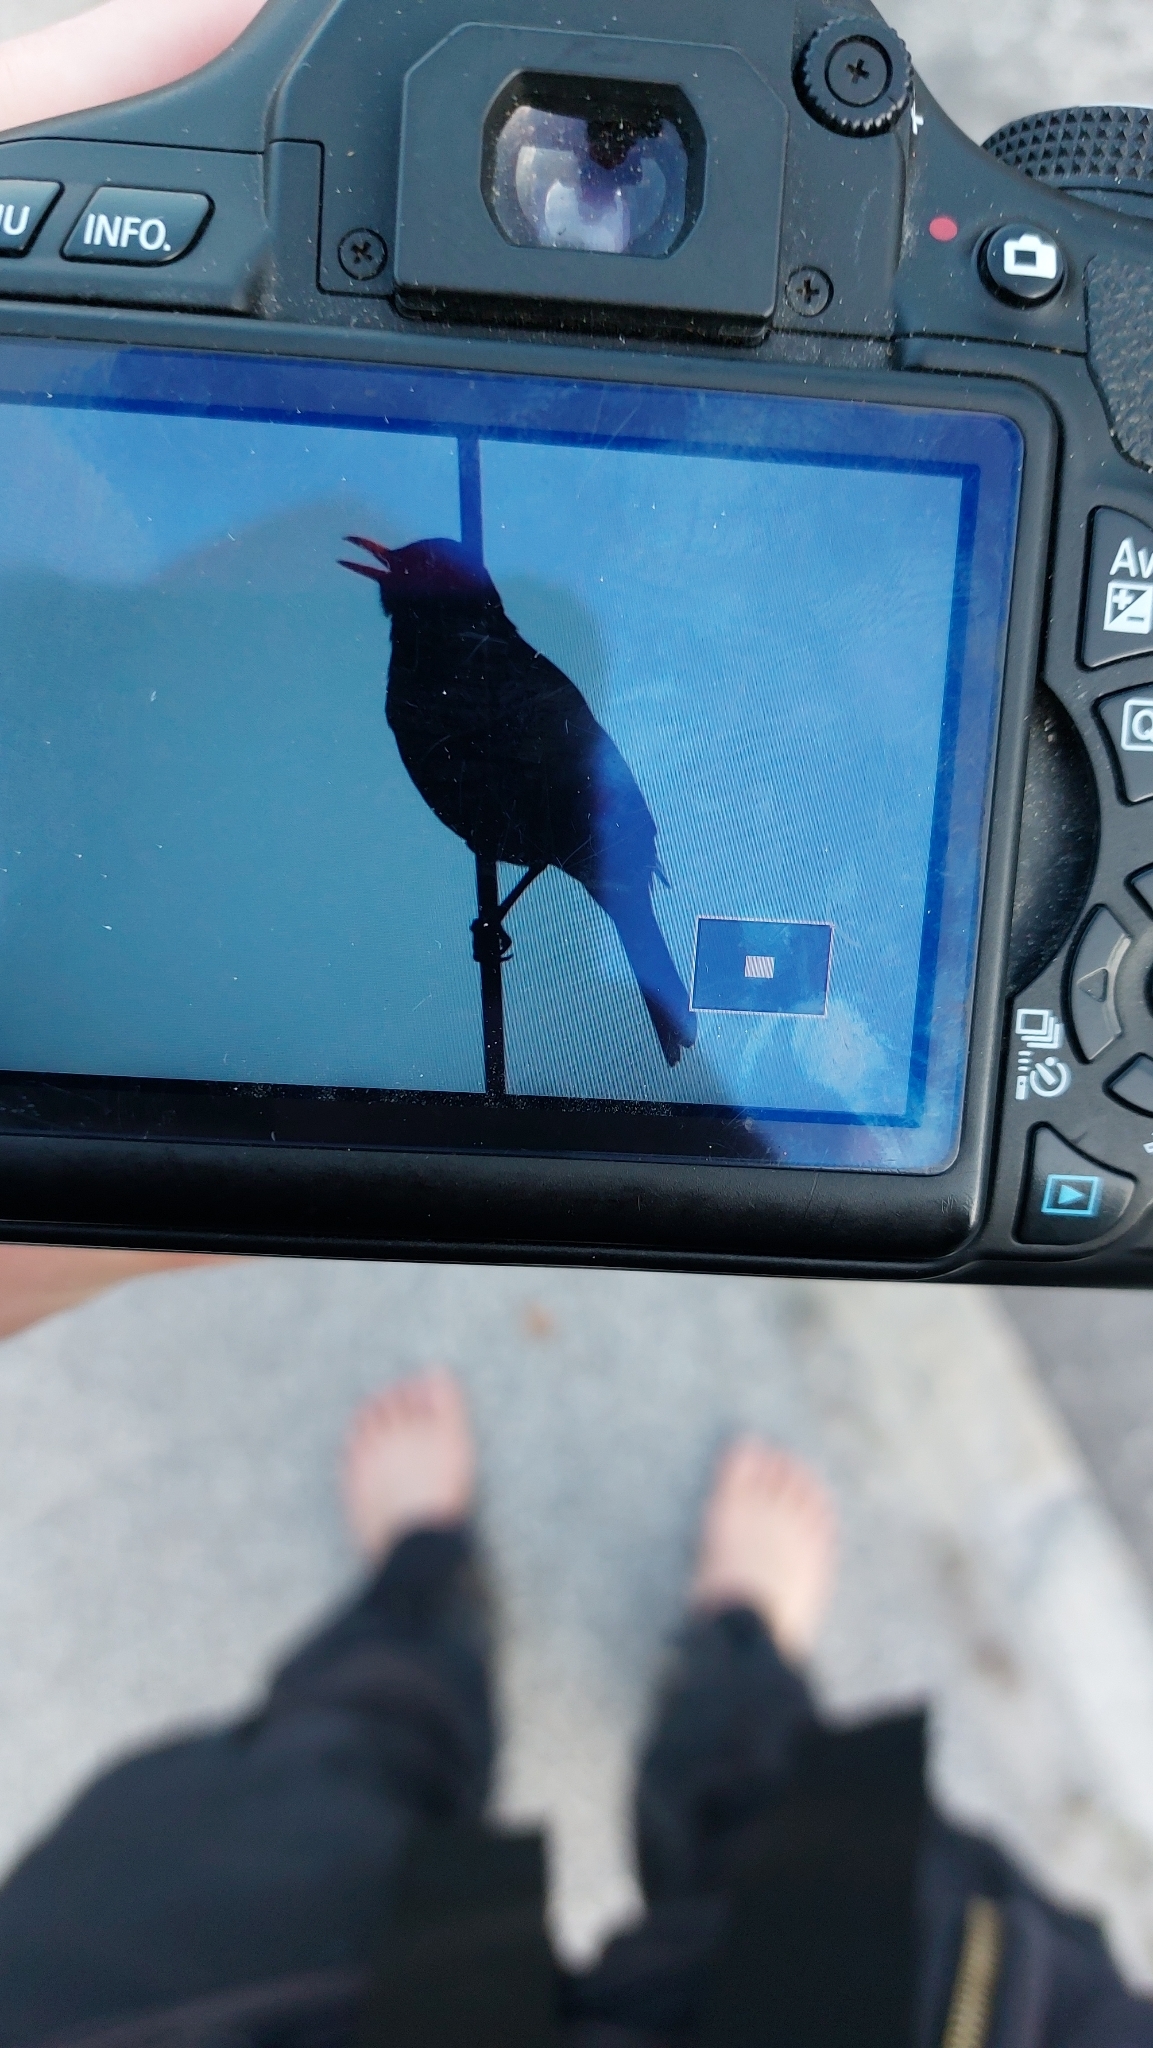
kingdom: Animalia
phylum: Chordata
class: Aves
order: Passeriformes
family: Turdidae
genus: Turdus
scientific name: Turdus merula
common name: Common blackbird
